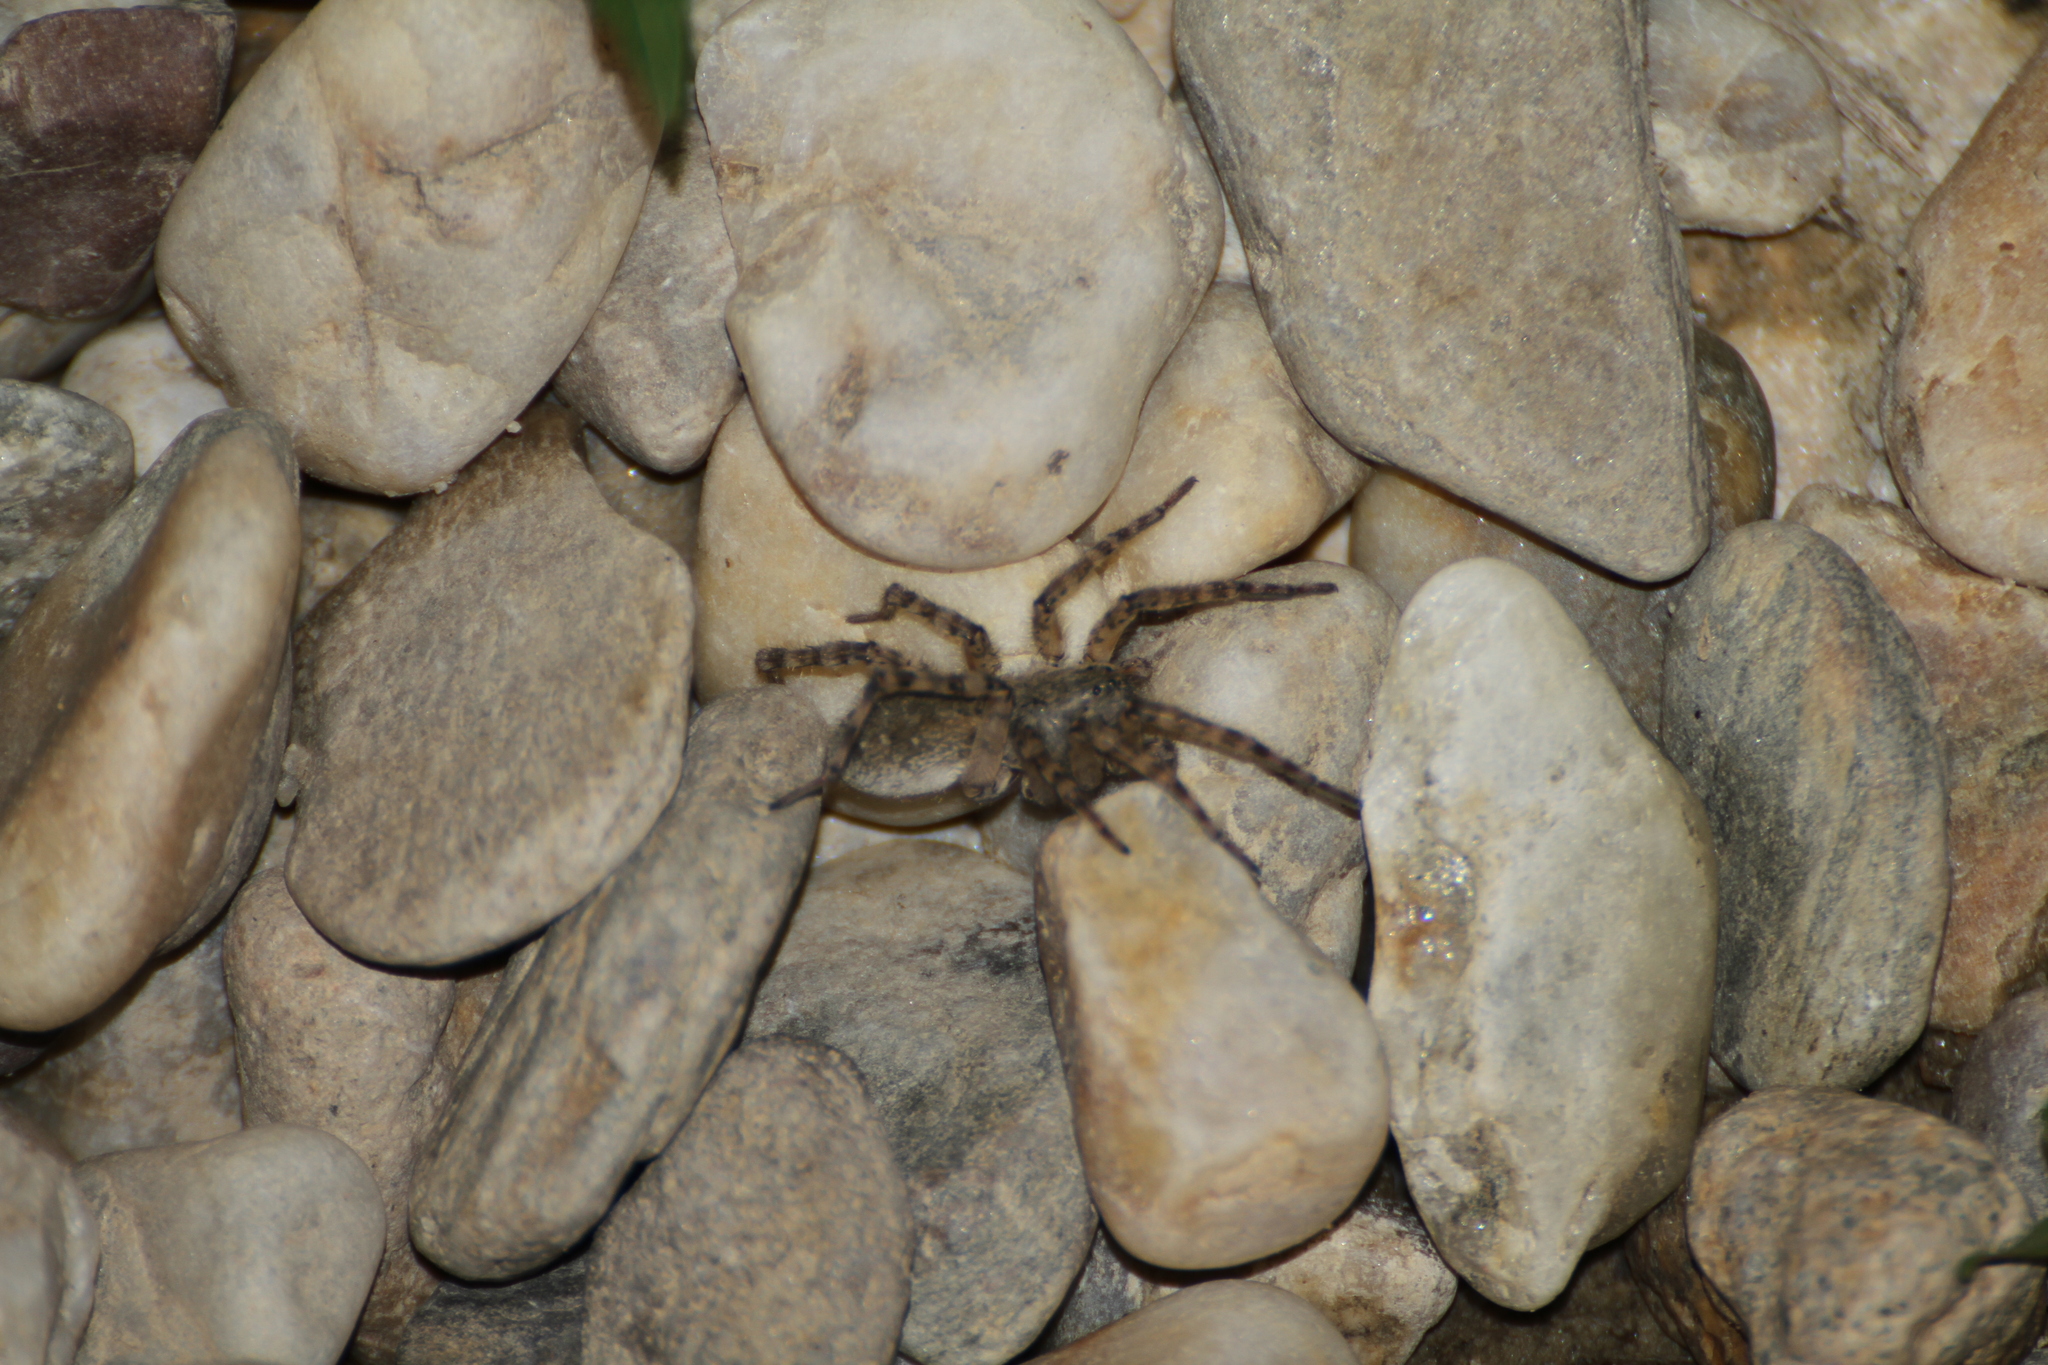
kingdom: Animalia
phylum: Arthropoda
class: Arachnida
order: Araneae
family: Lycosidae
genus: Arctosa
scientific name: Arctosa
